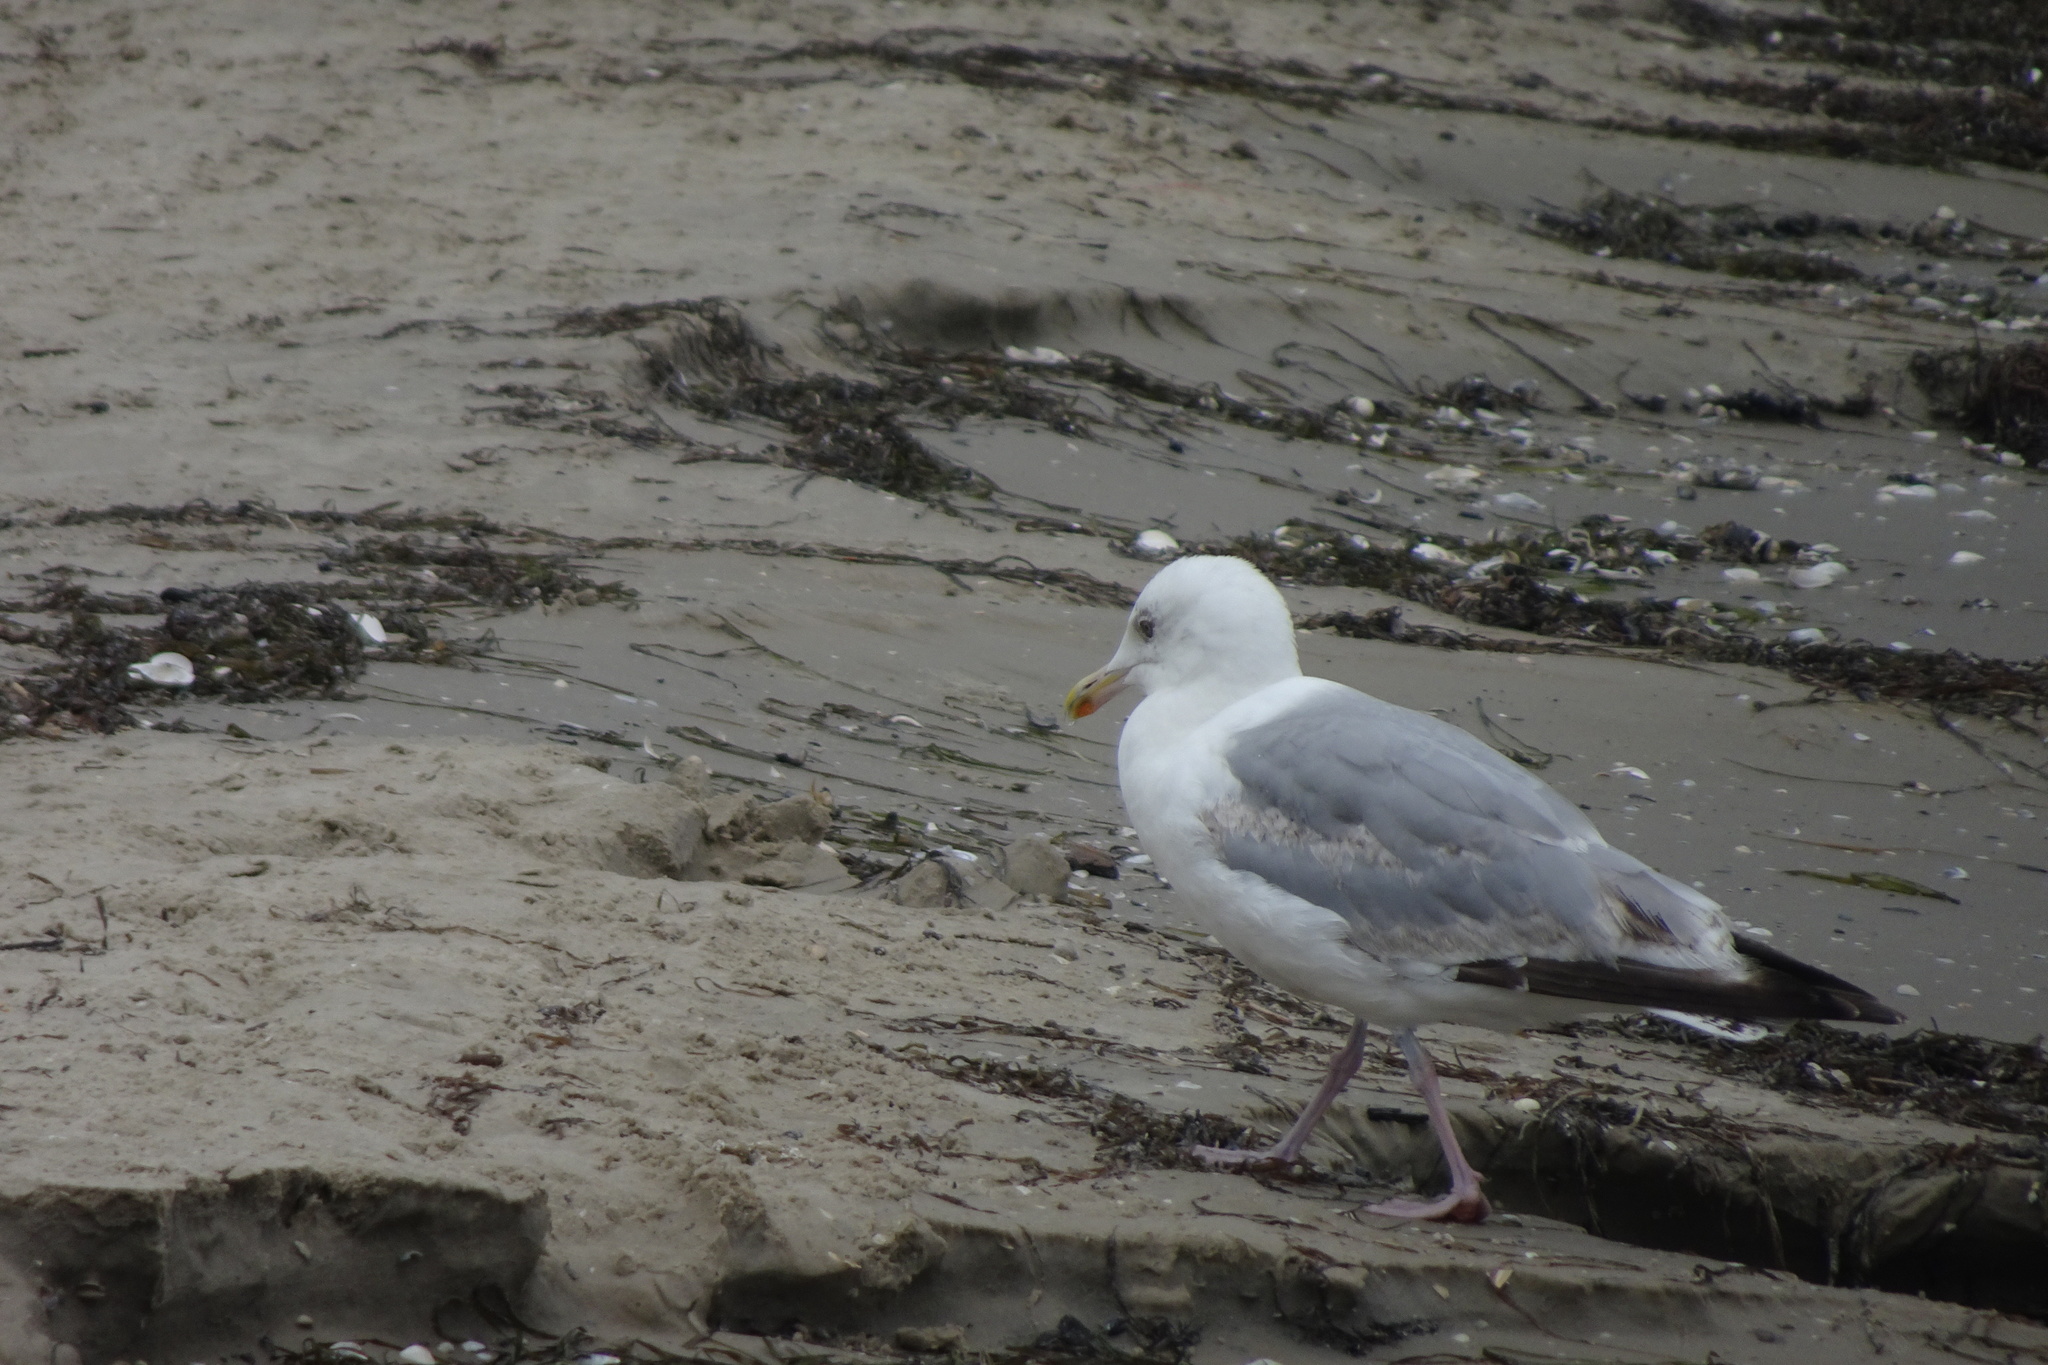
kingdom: Animalia
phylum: Chordata
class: Aves
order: Charadriiformes
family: Laridae
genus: Larus
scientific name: Larus argentatus
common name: Herring gull
